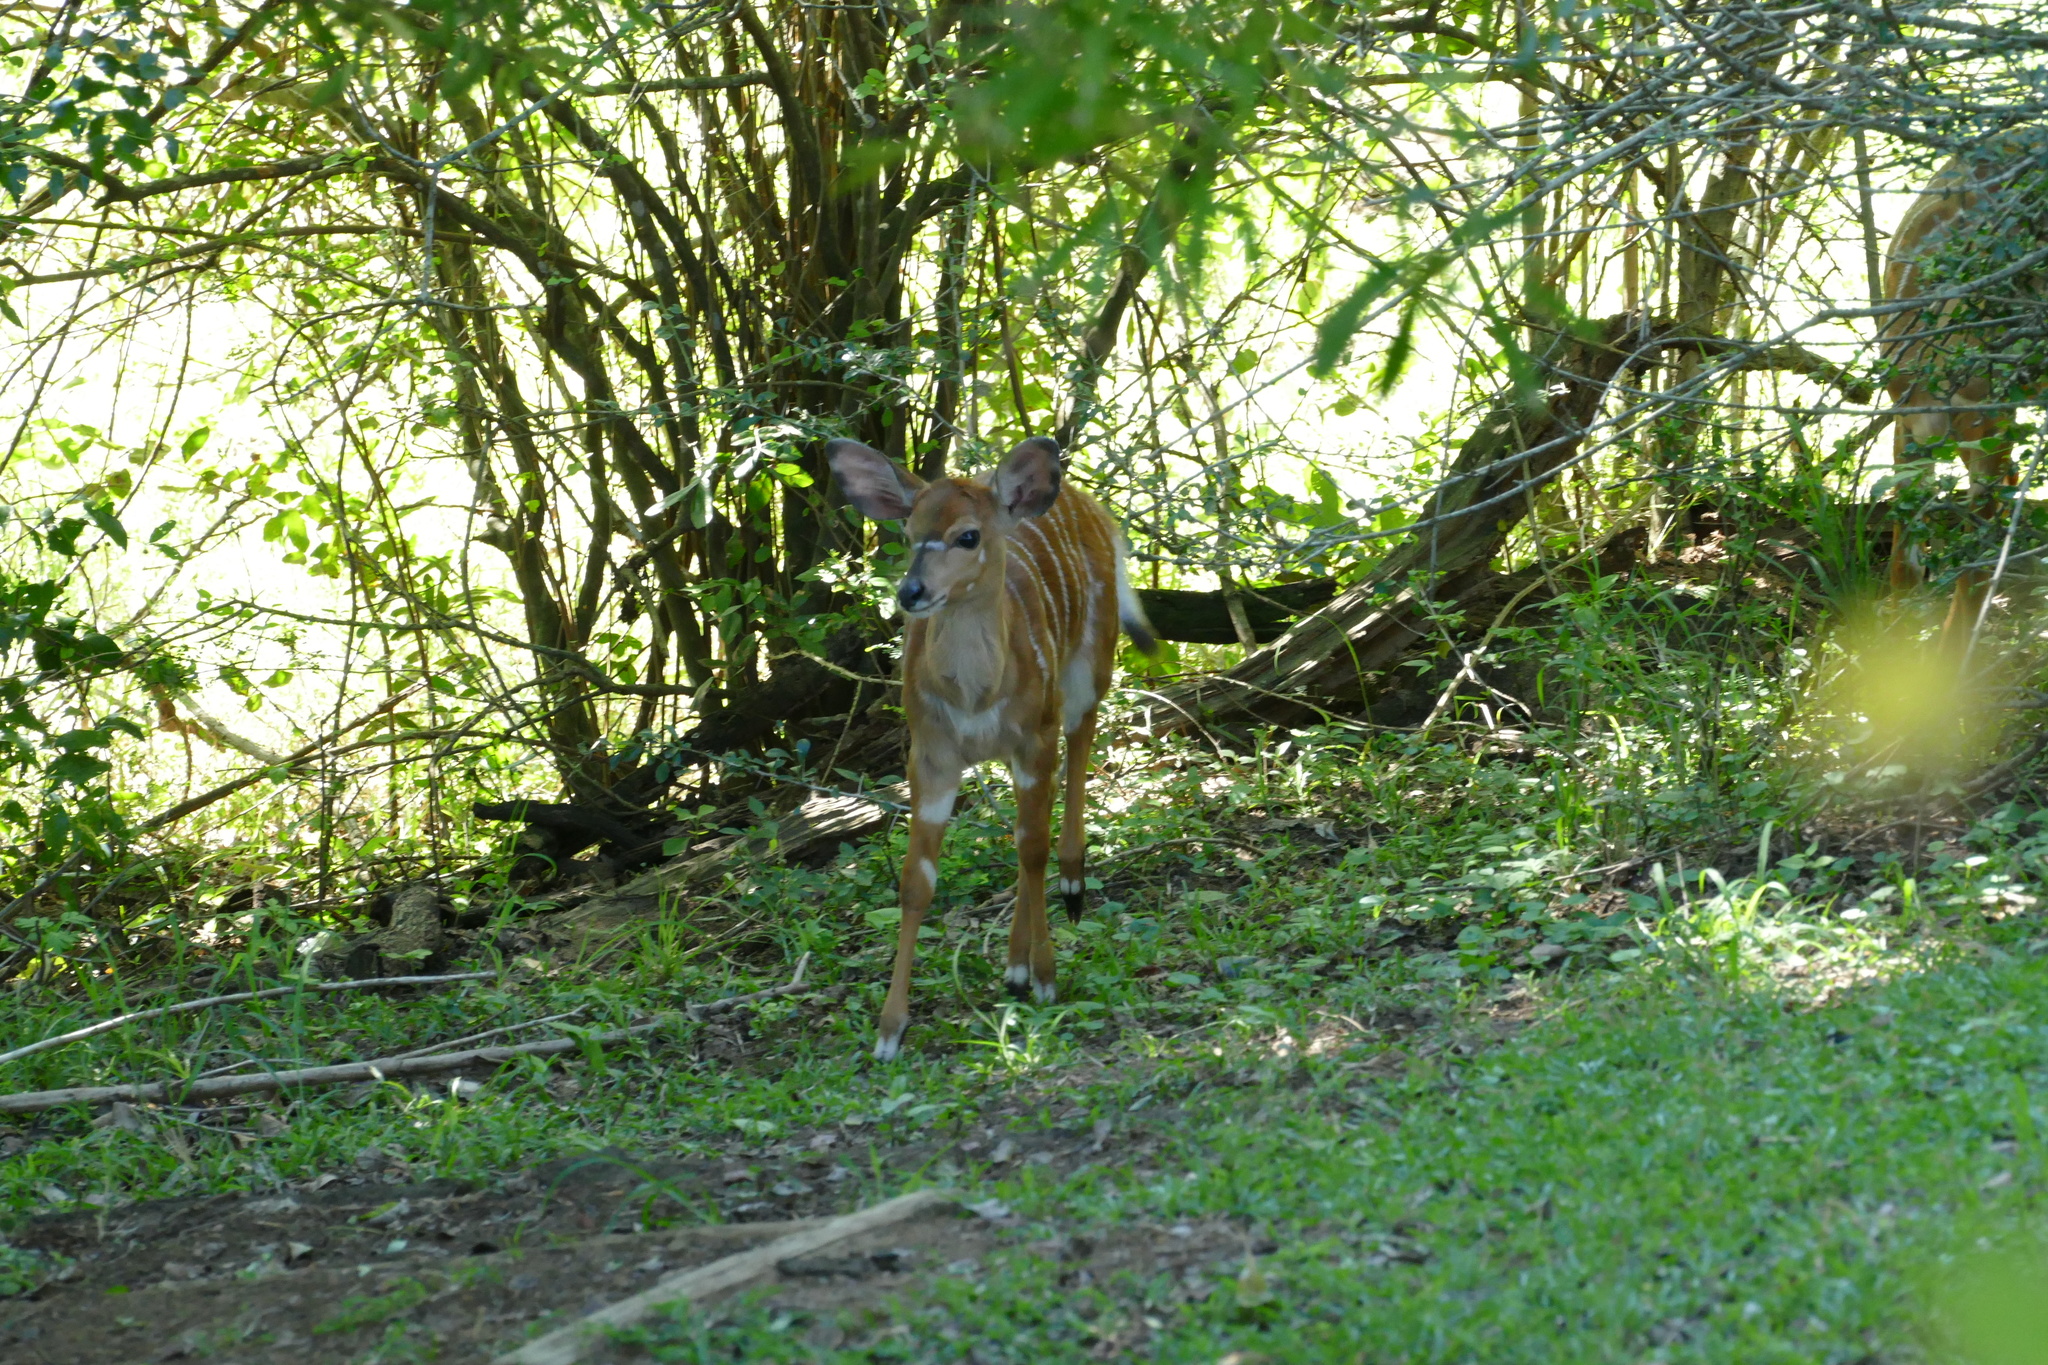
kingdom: Animalia
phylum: Chordata
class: Mammalia
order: Artiodactyla
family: Bovidae
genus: Tragelaphus
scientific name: Tragelaphus angasii
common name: Nyala
